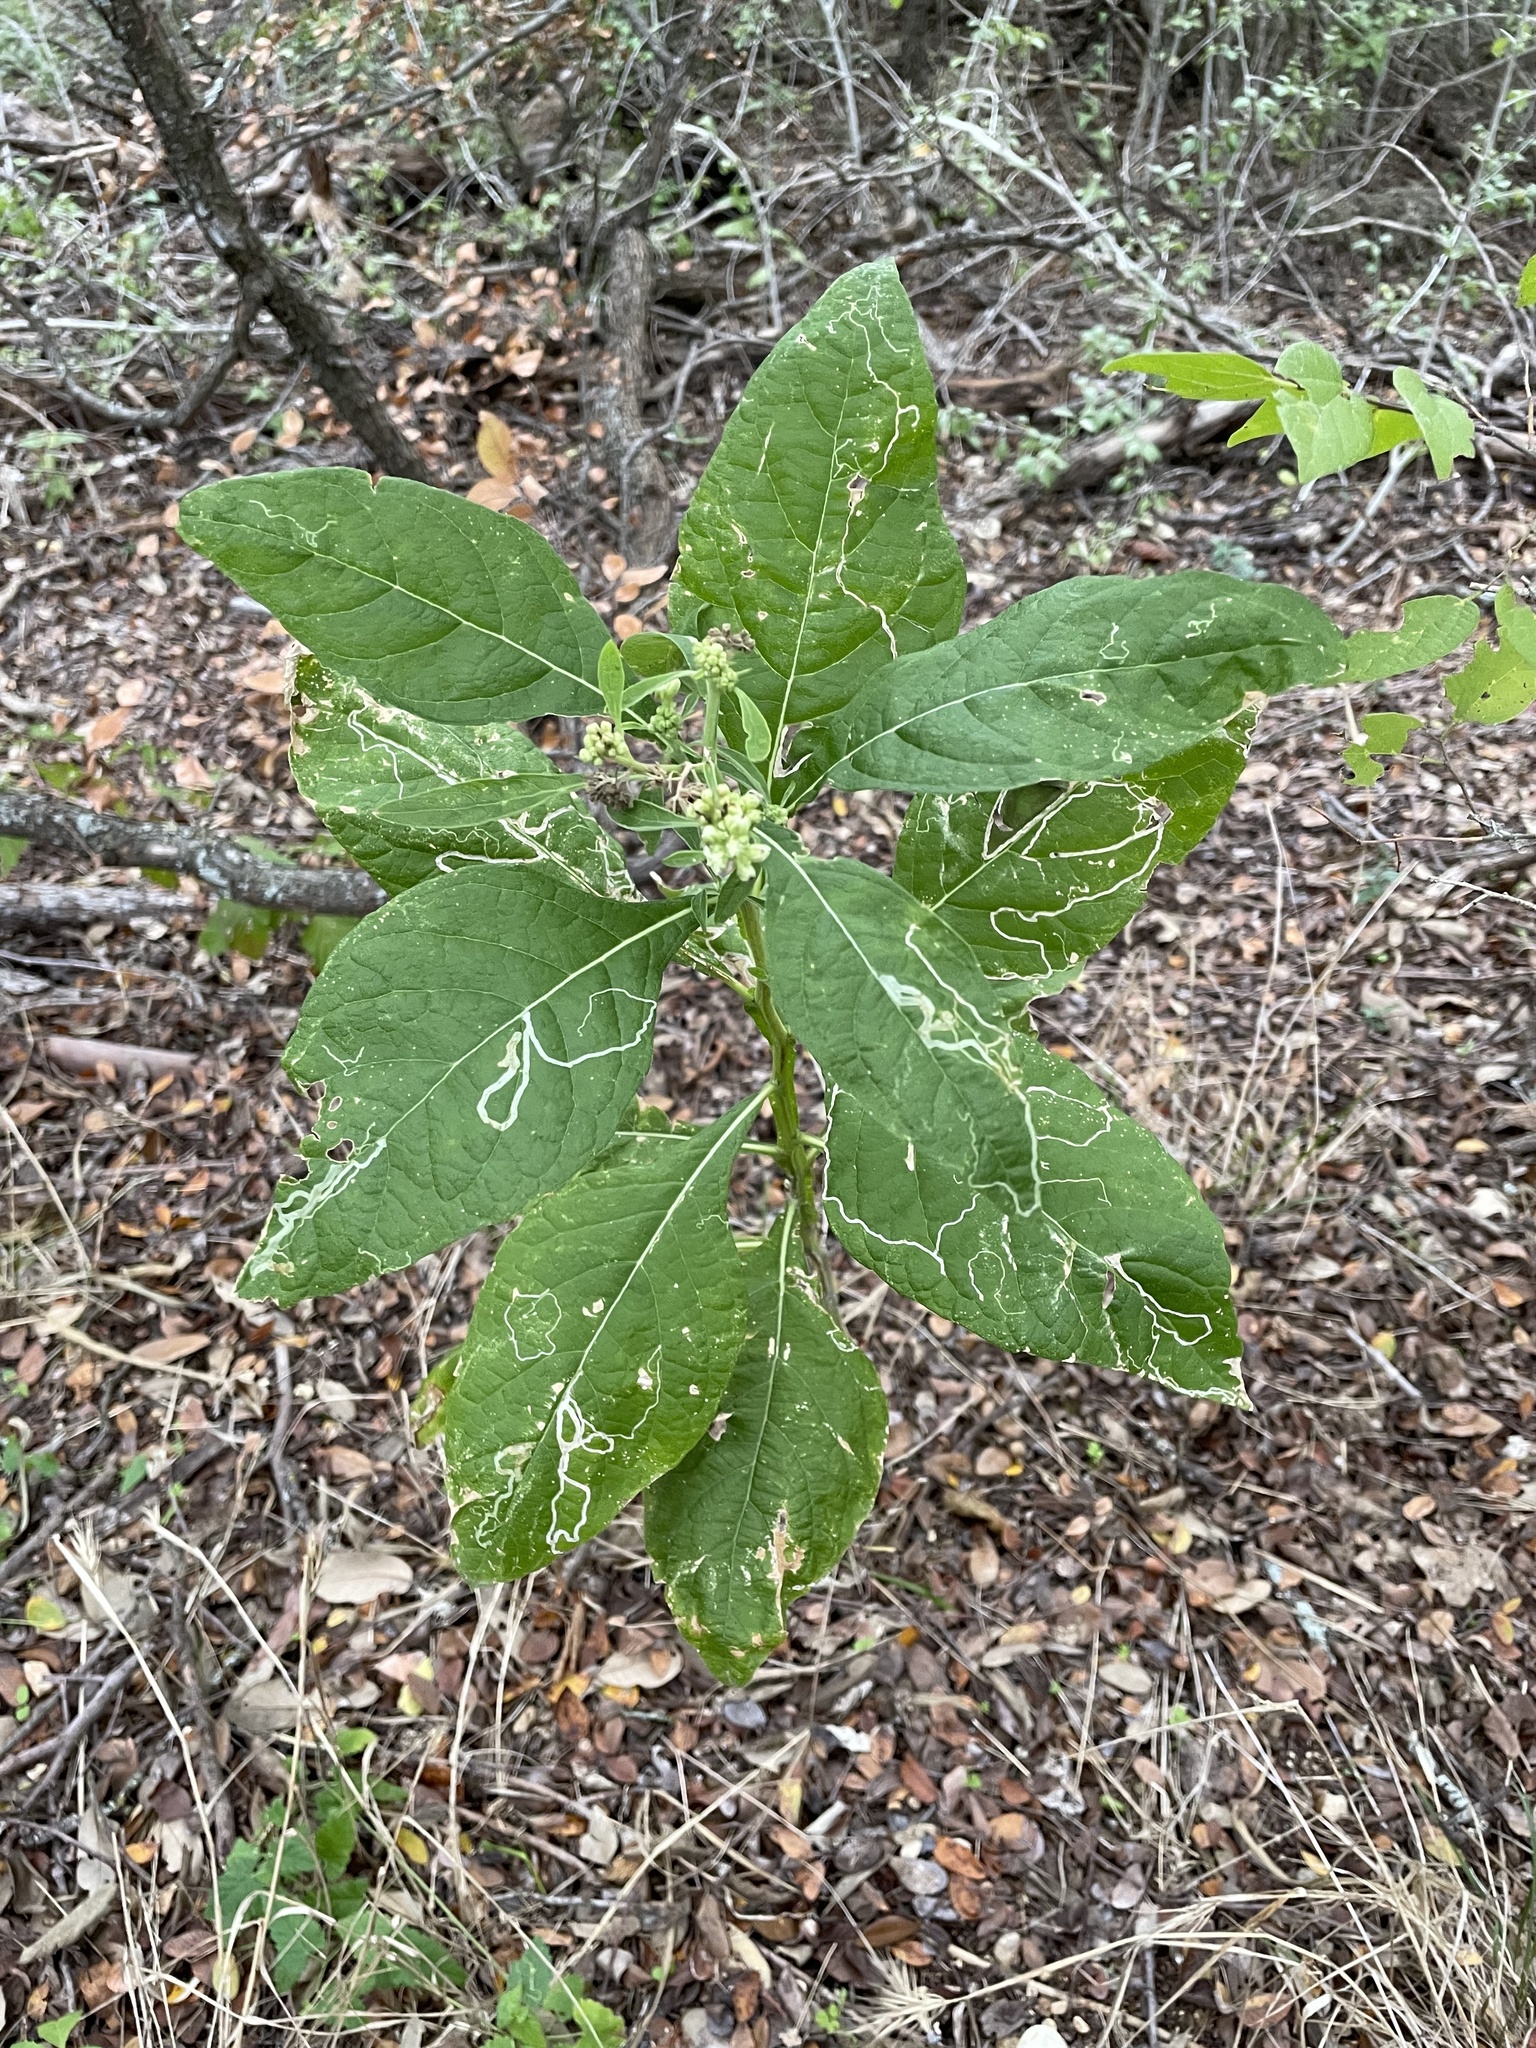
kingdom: Plantae
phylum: Tracheophyta
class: Magnoliopsida
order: Asterales
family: Asteraceae
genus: Verbesina
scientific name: Verbesina virginica
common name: Frostweed
